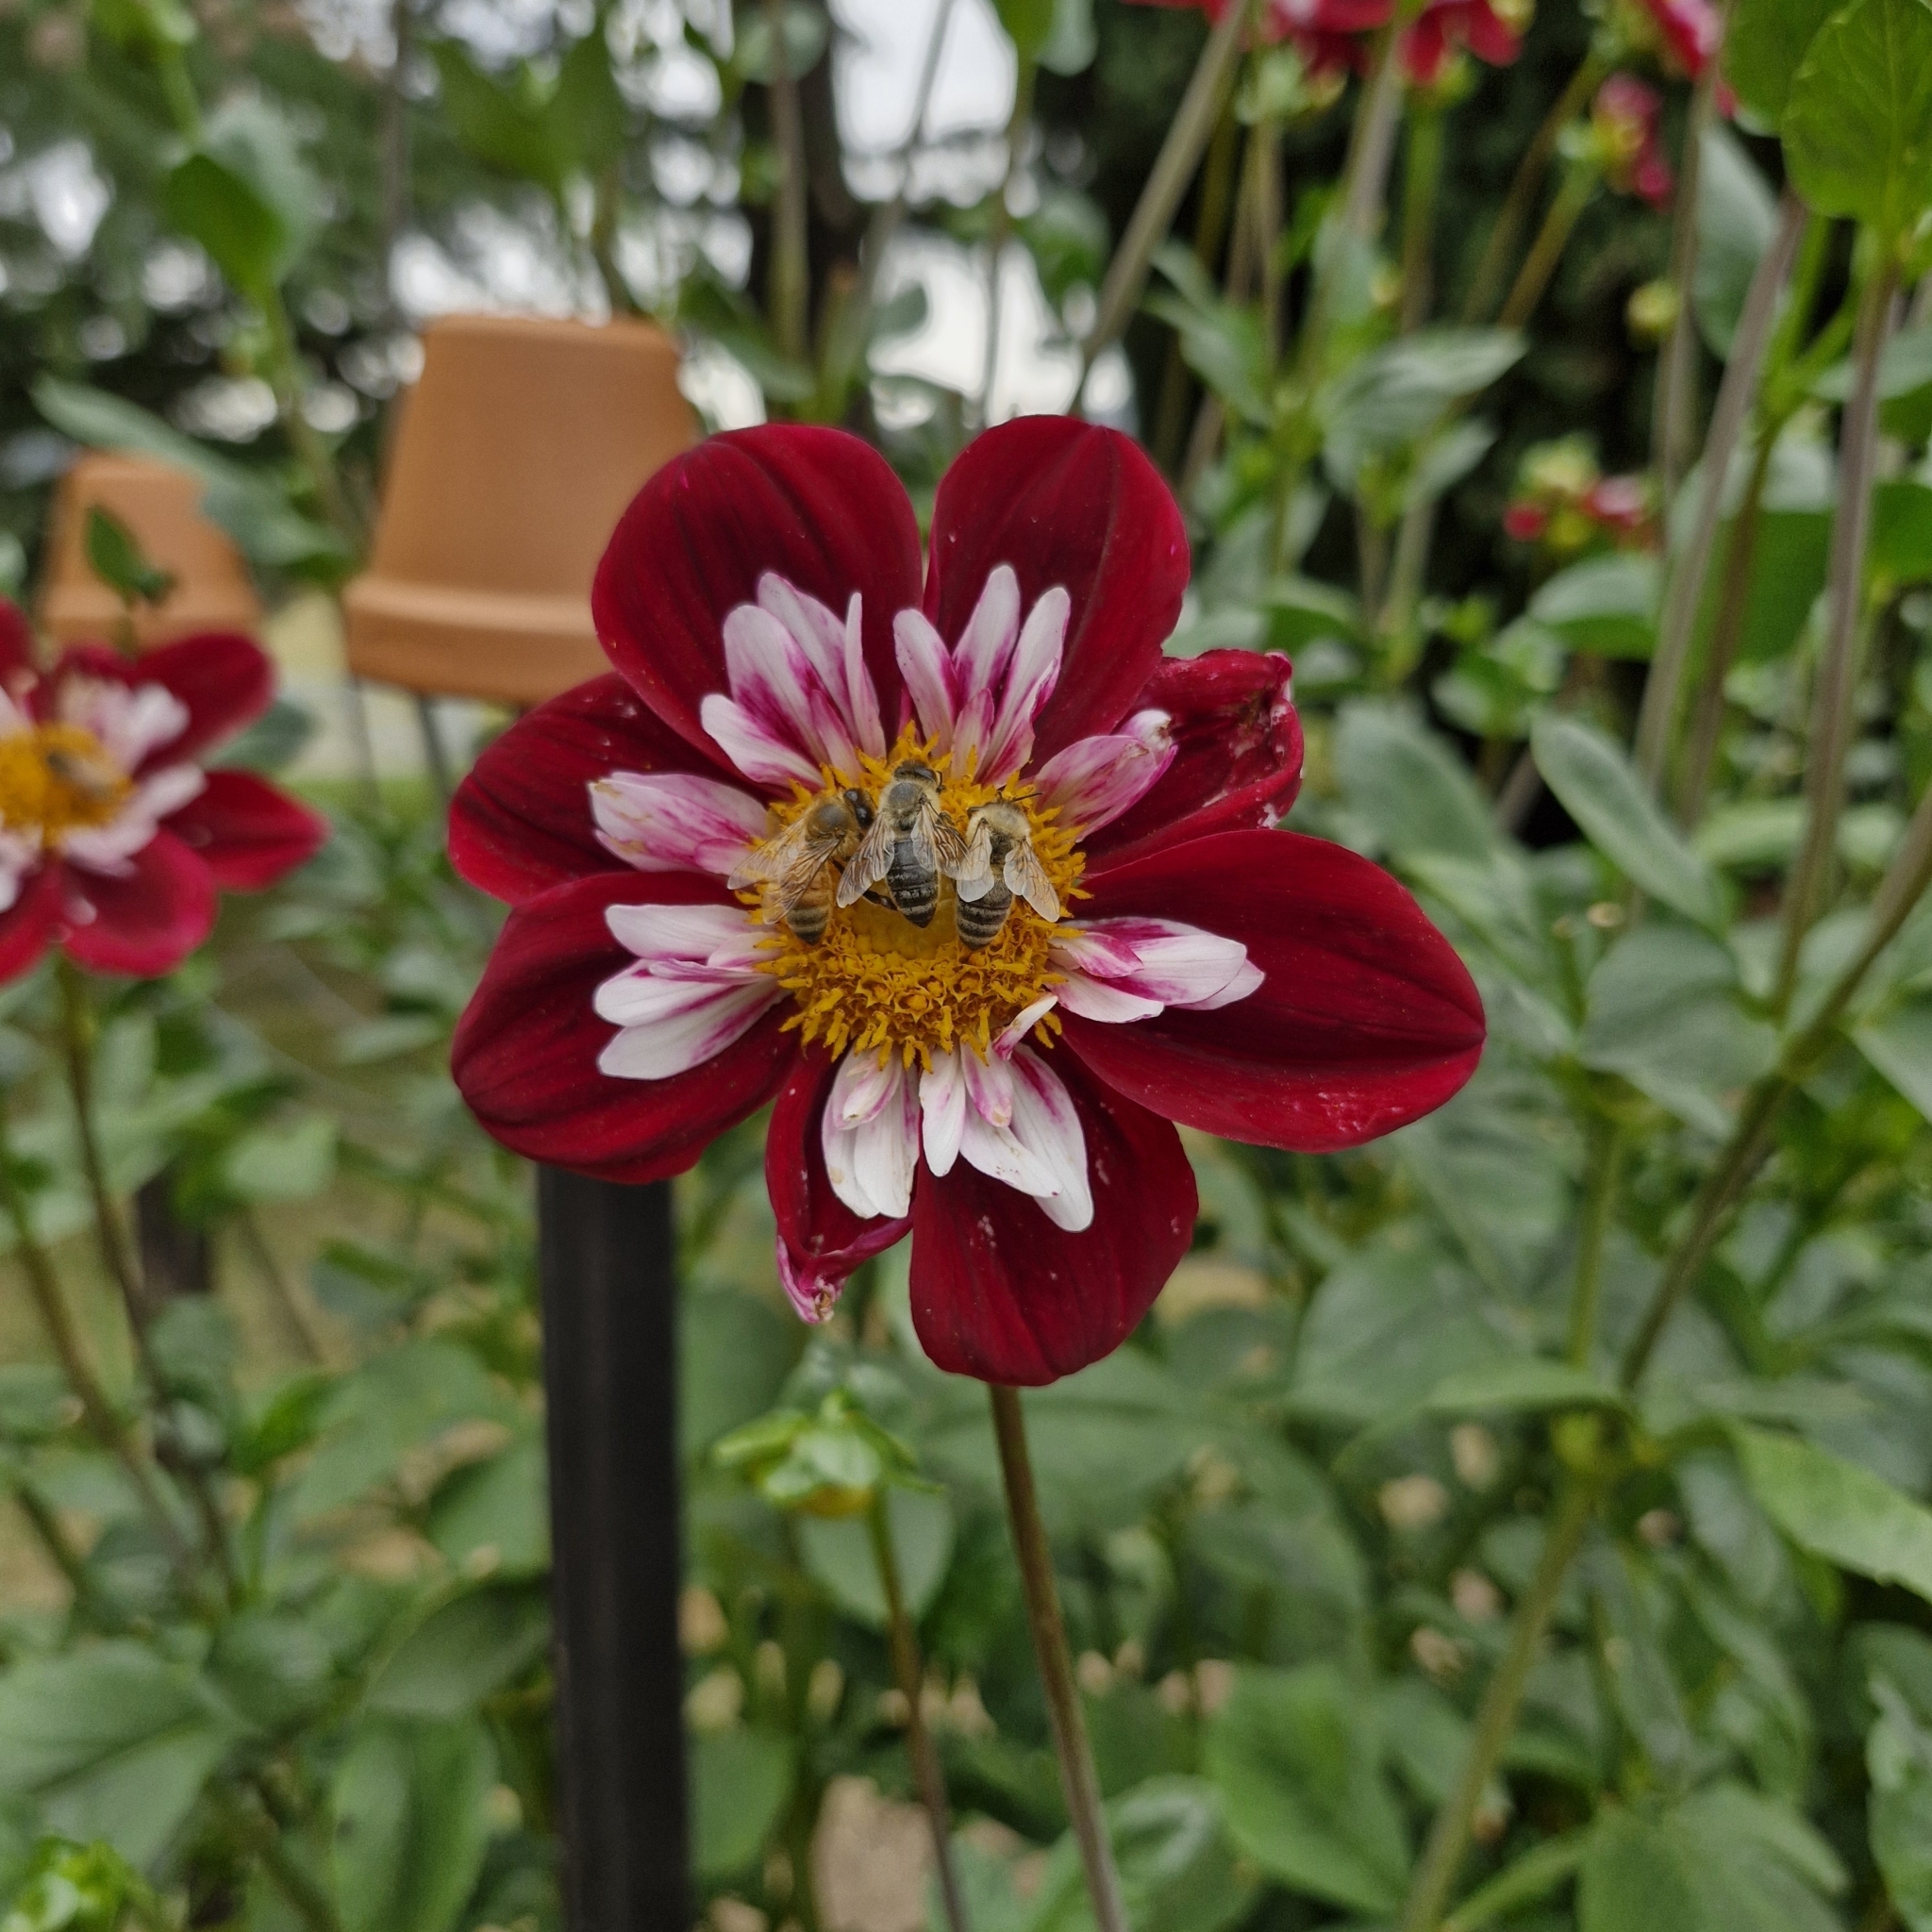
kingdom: Animalia
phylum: Arthropoda
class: Insecta
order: Hymenoptera
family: Apidae
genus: Apis
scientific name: Apis mellifera
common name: Honey bee
